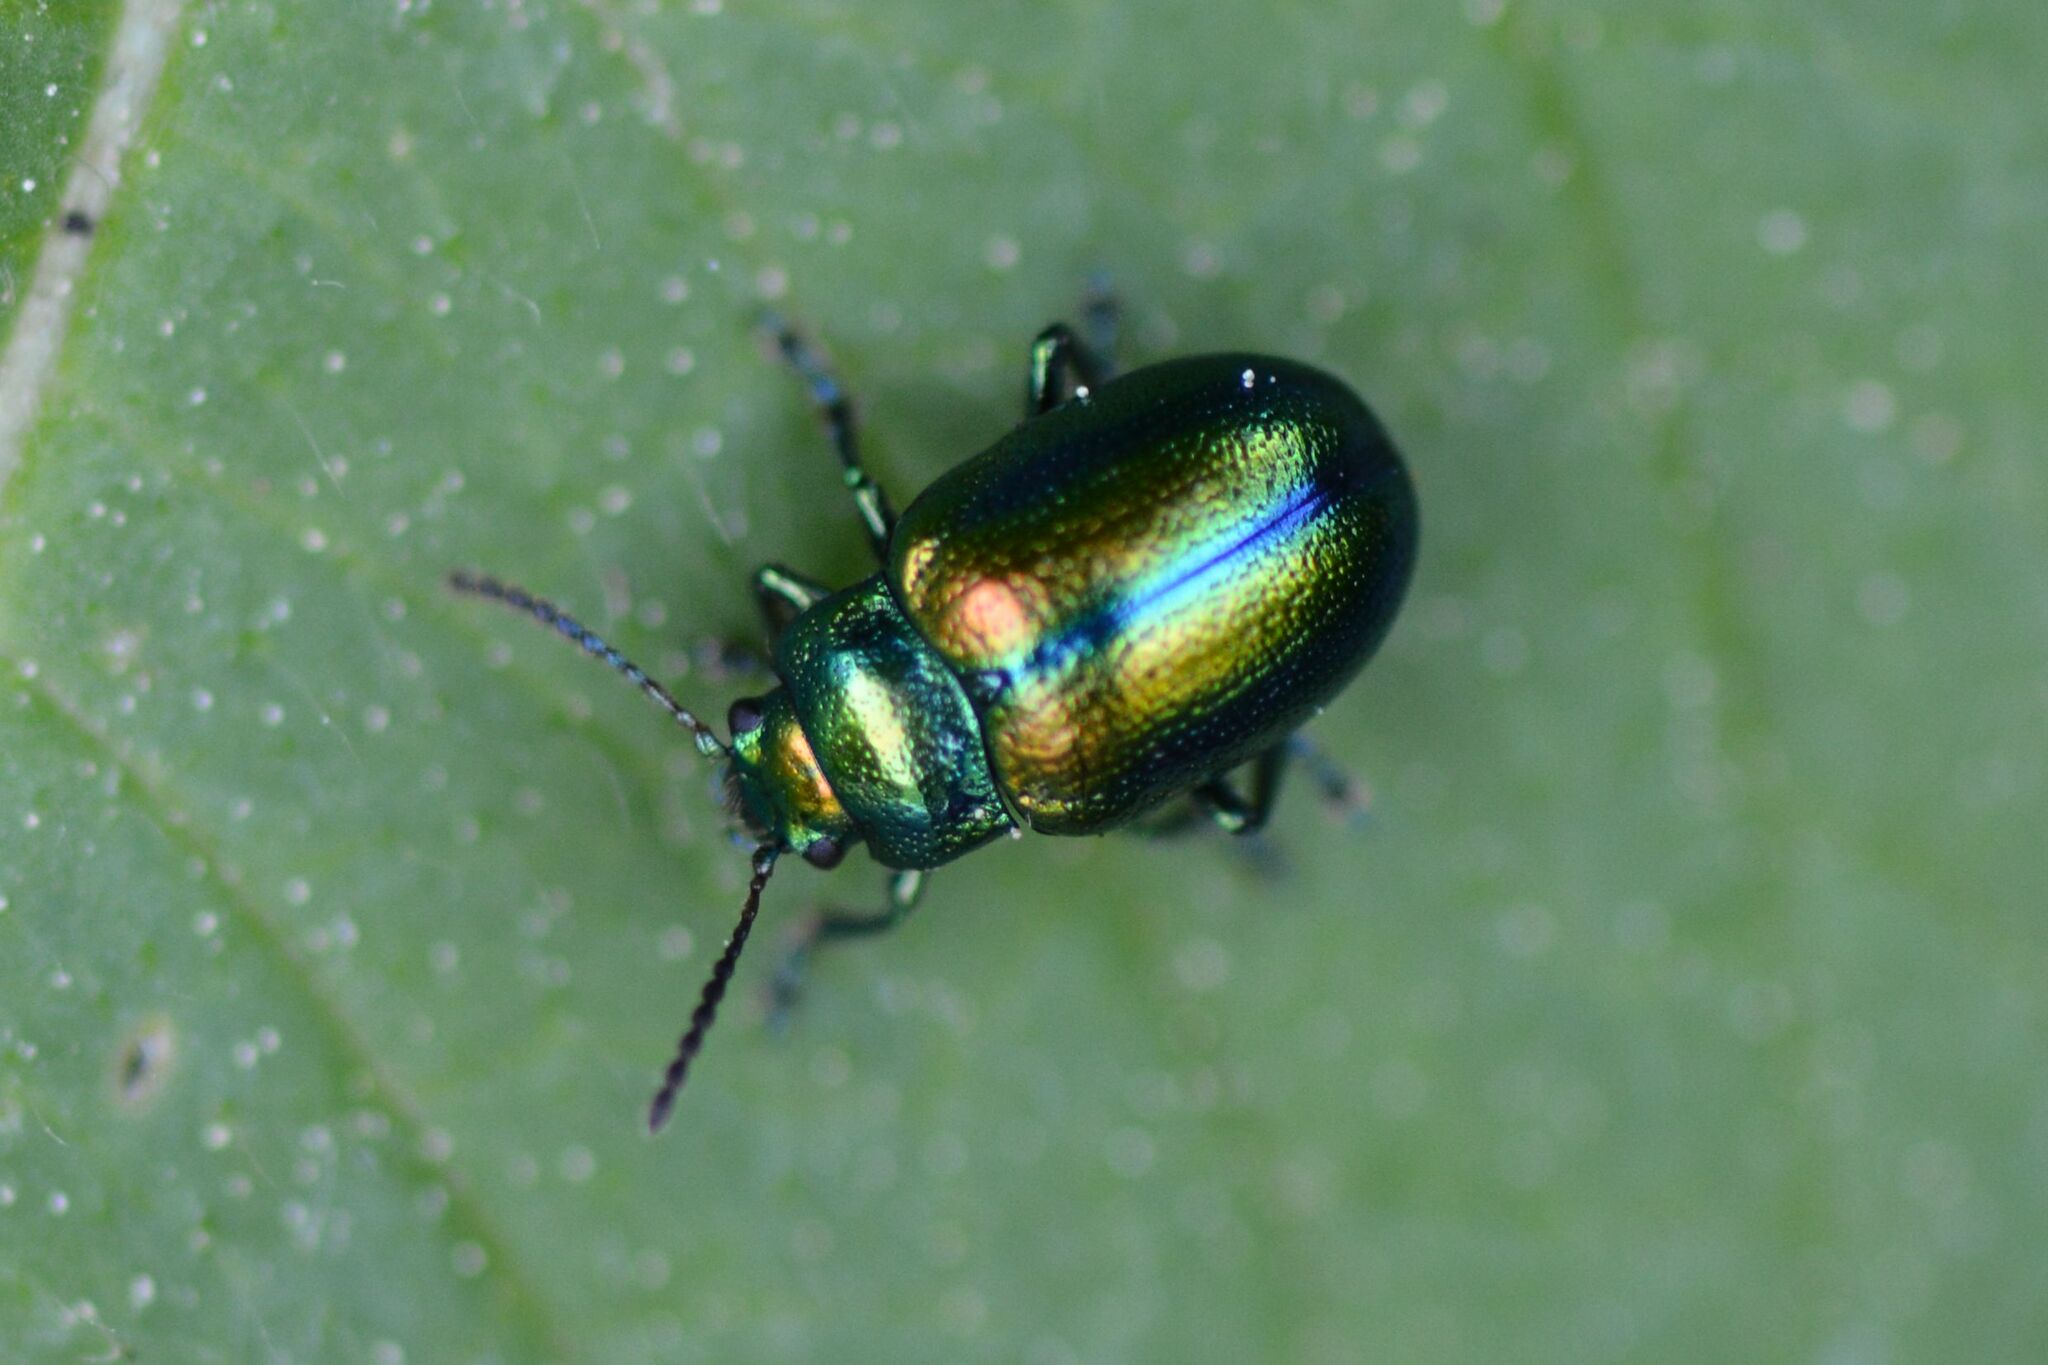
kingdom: Animalia
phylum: Arthropoda
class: Insecta
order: Coleoptera
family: Chrysomelidae
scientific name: Chrysomelidae
